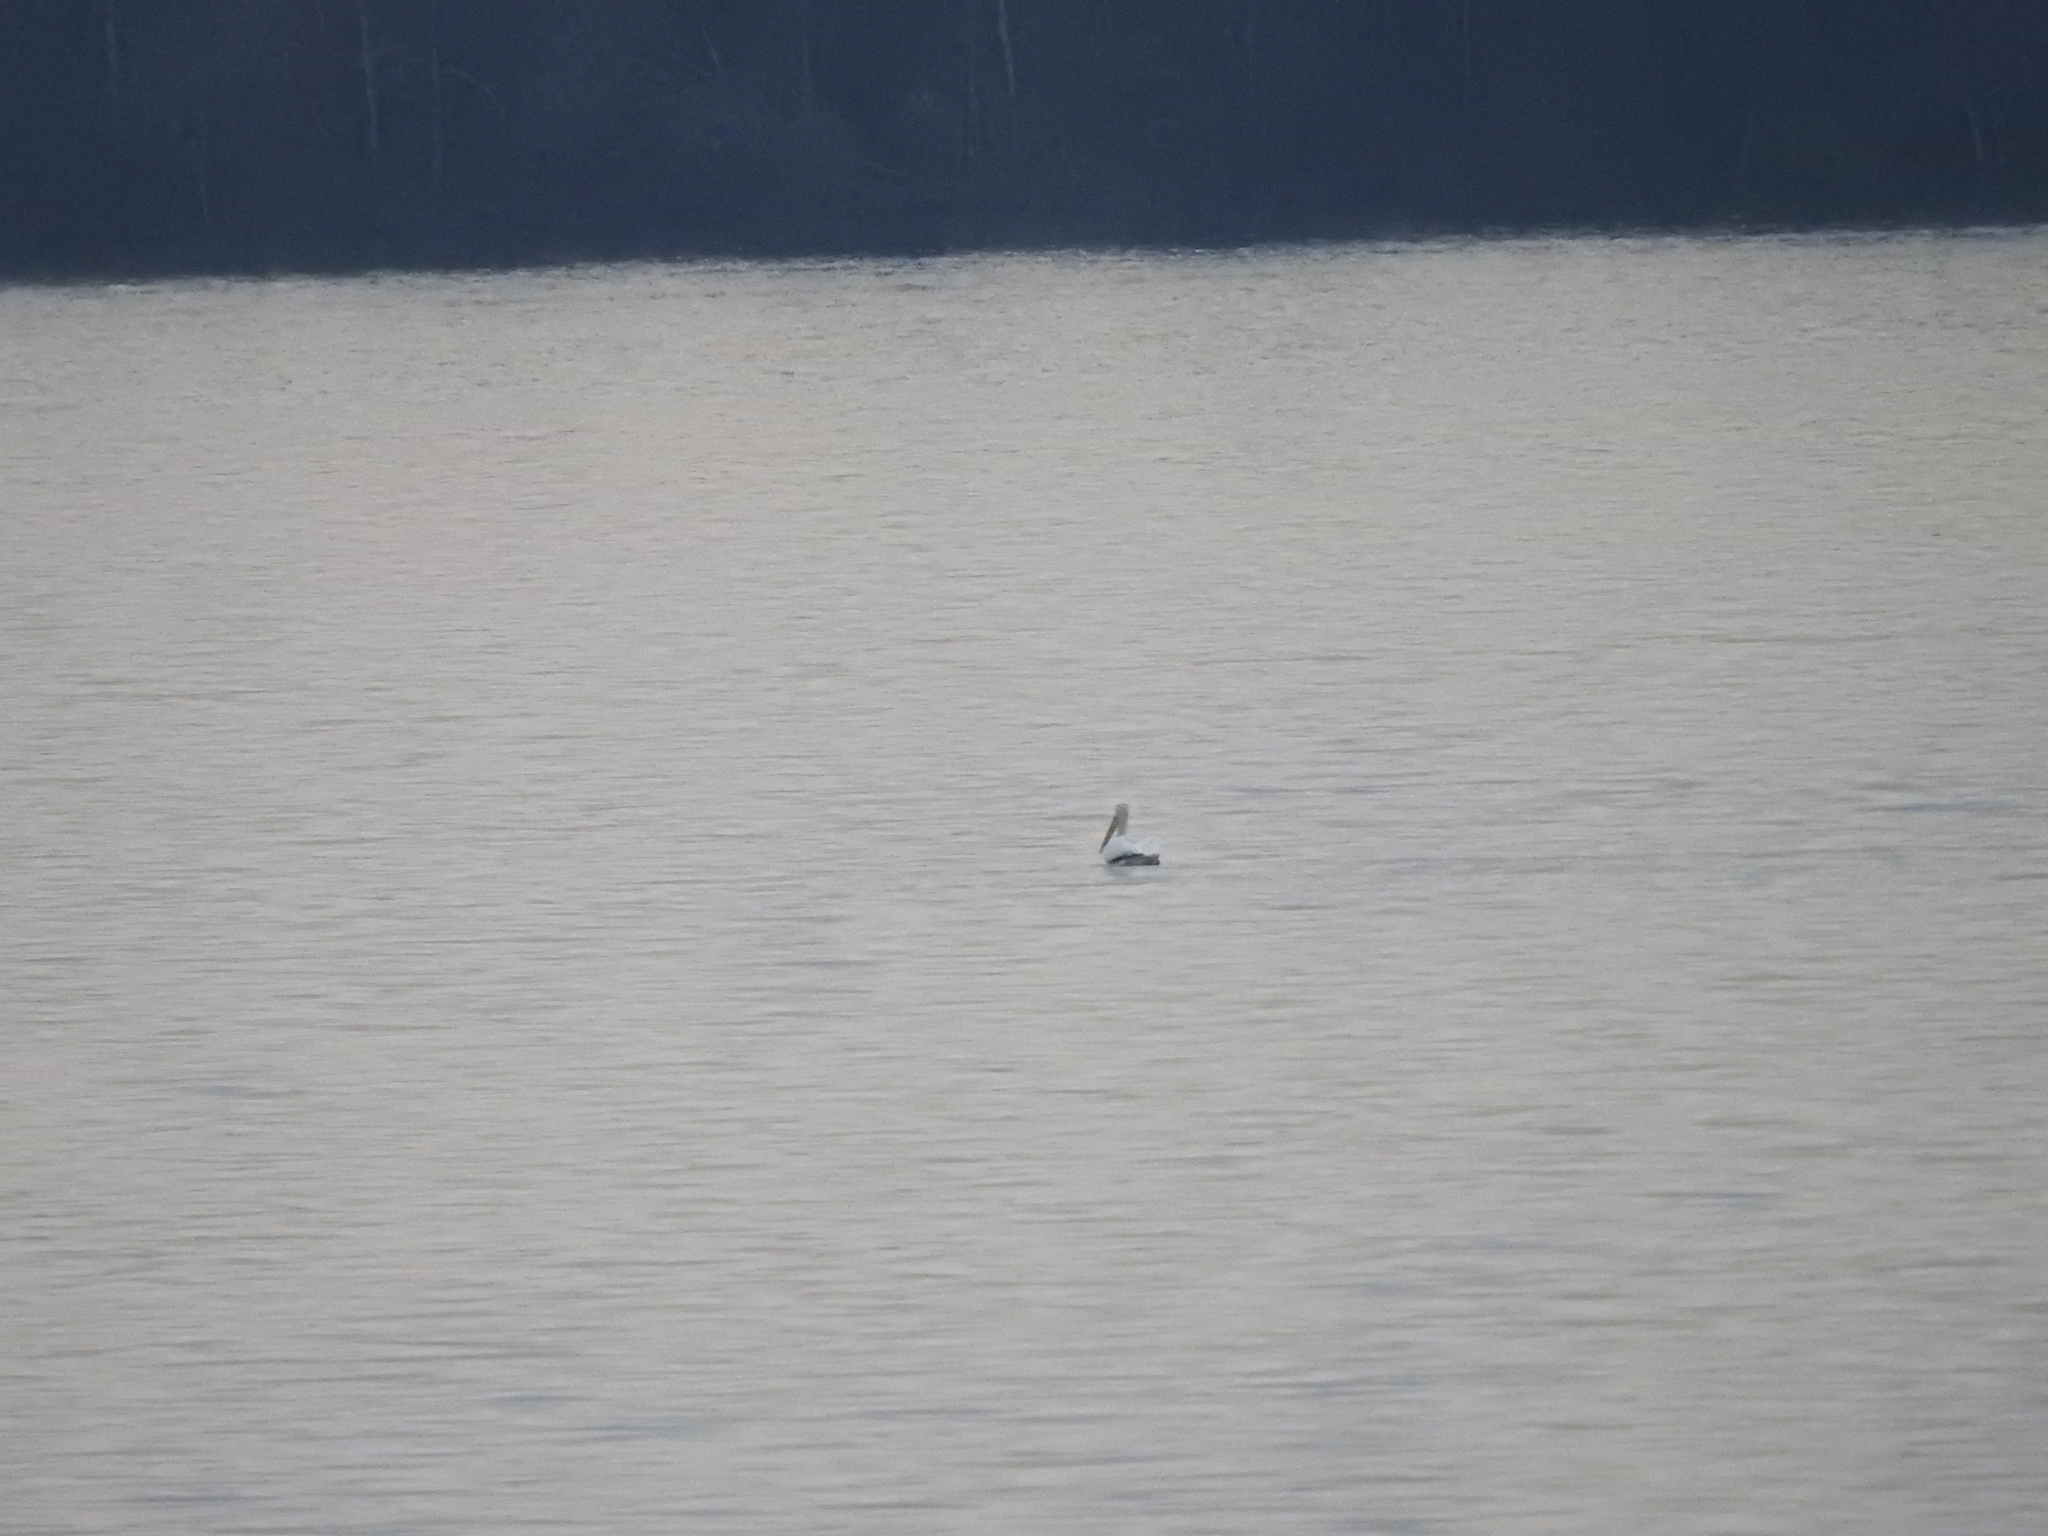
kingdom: Animalia
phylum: Chordata
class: Aves
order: Pelecaniformes
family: Pelecanidae
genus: Pelecanus
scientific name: Pelecanus erythrorhynchos
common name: American white pelican
